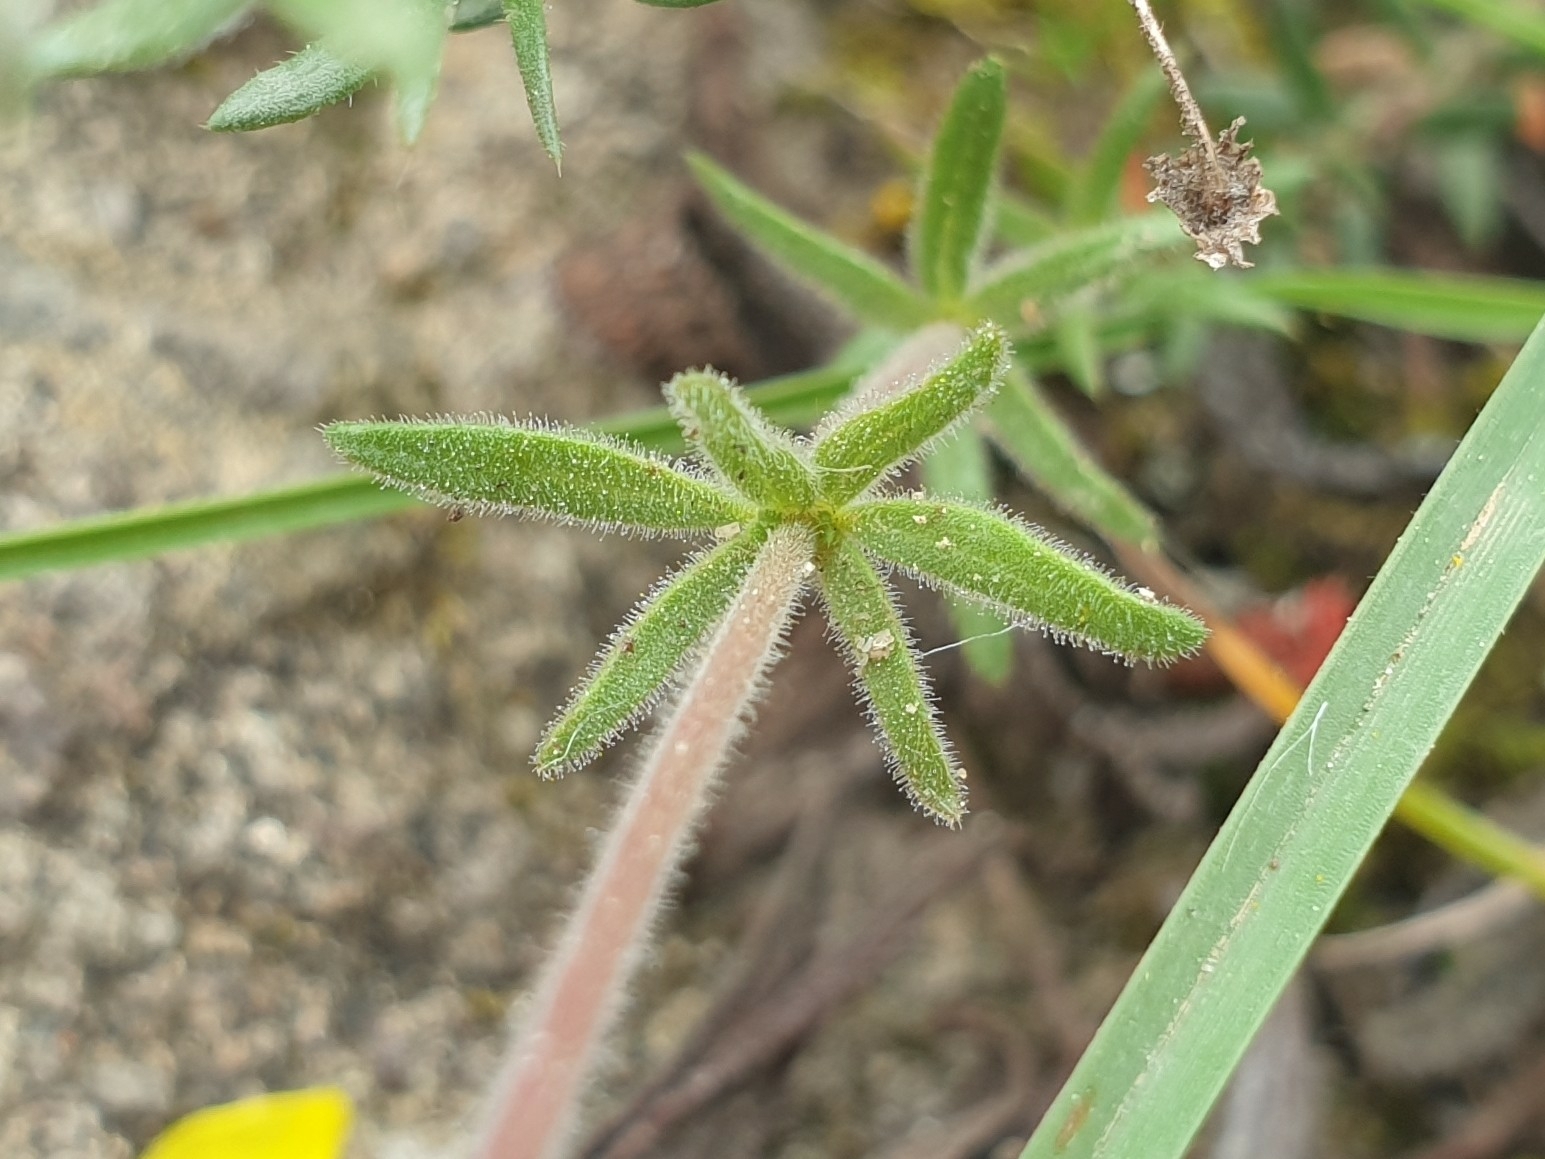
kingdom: Plantae
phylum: Tracheophyta
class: Magnoliopsida
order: Malvales
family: Cistaceae
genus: Fumana
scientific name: Fumana thymifolia
